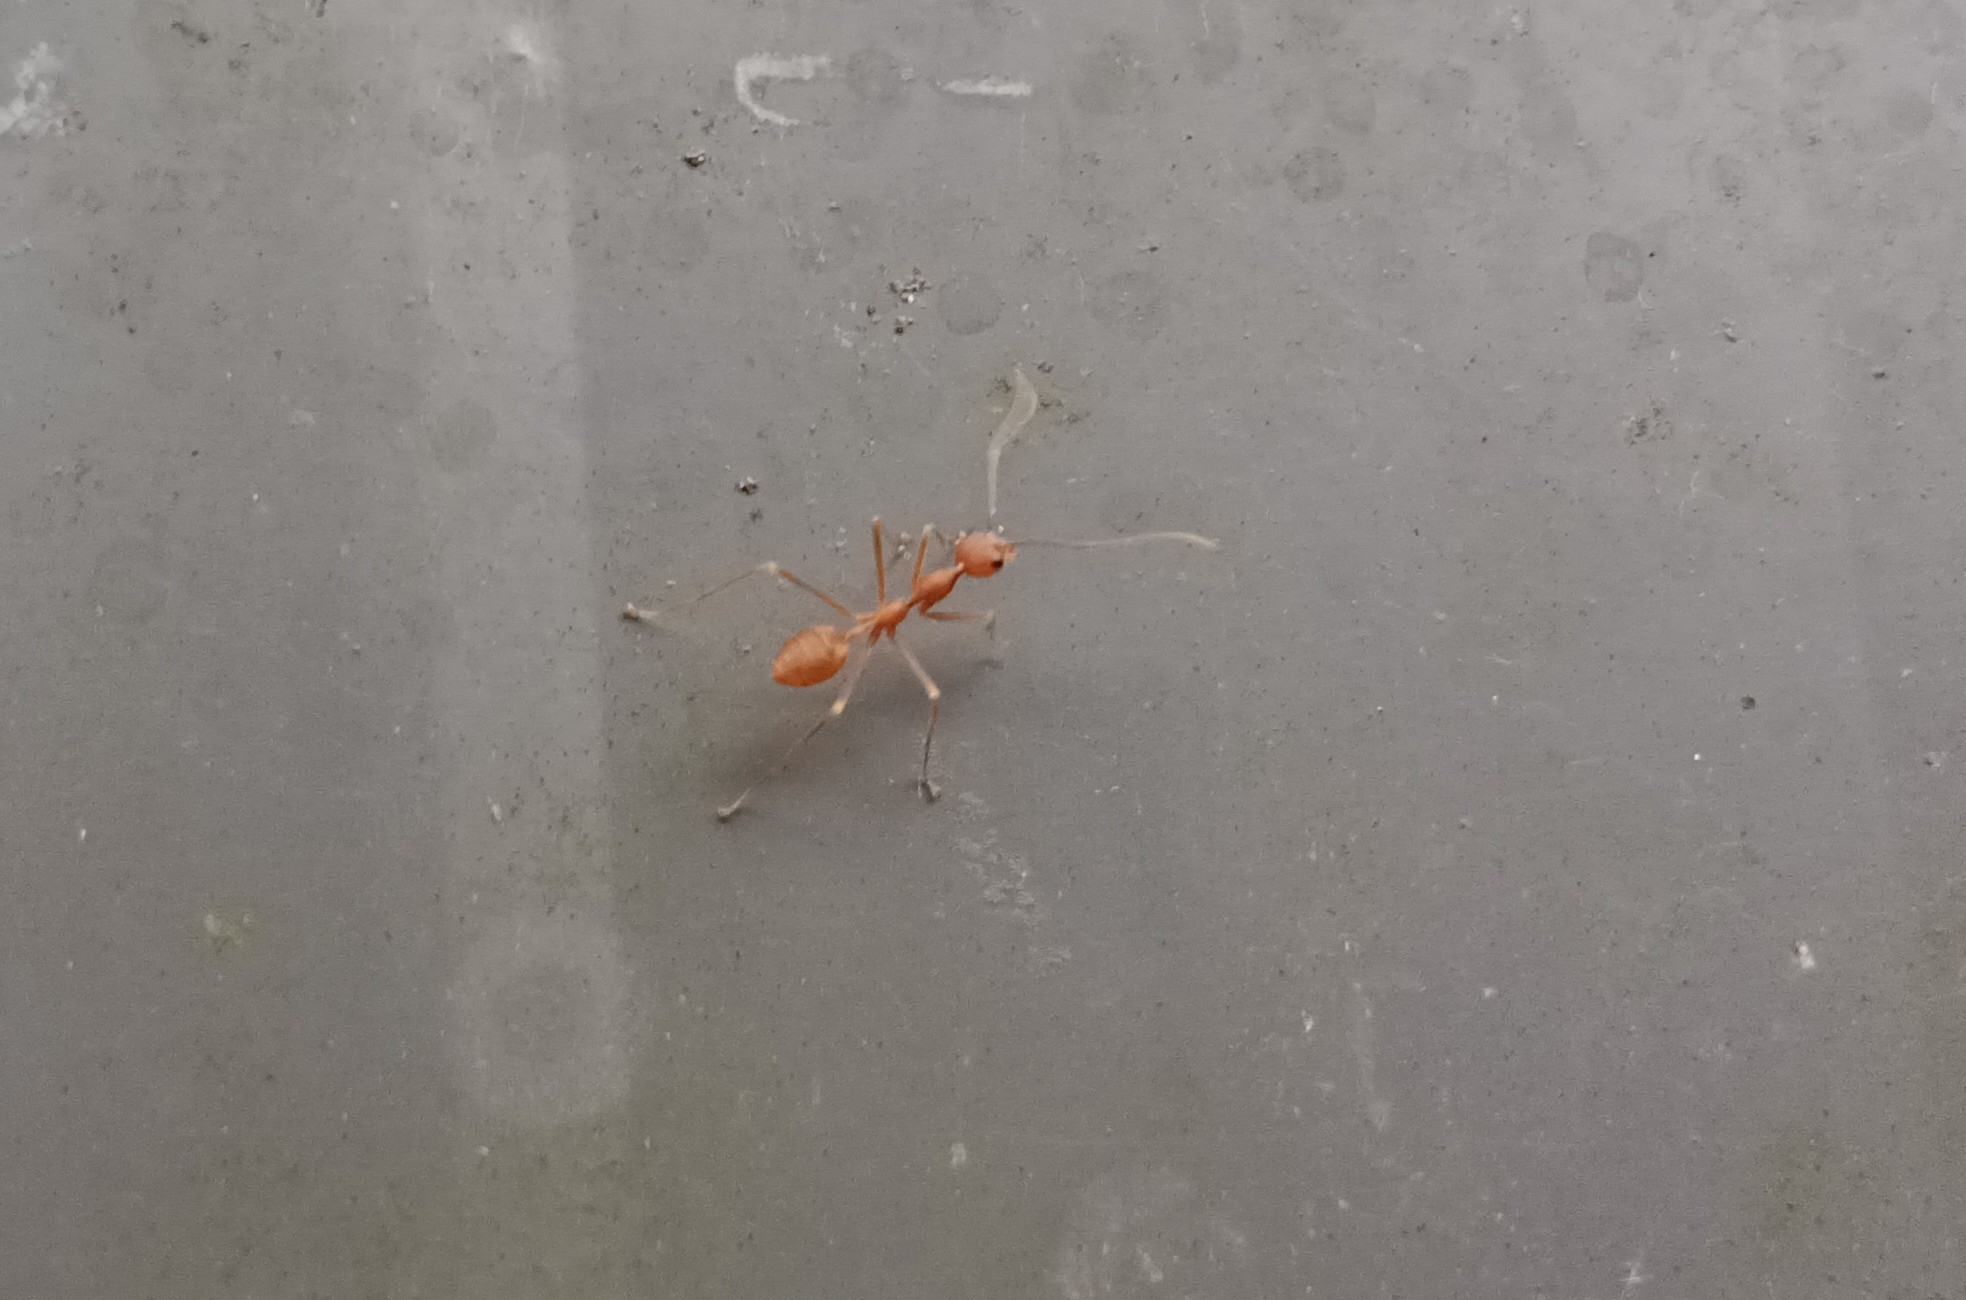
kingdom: Animalia
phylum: Arthropoda
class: Insecta
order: Hymenoptera
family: Formicidae
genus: Oecophylla
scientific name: Oecophylla smaragdina
